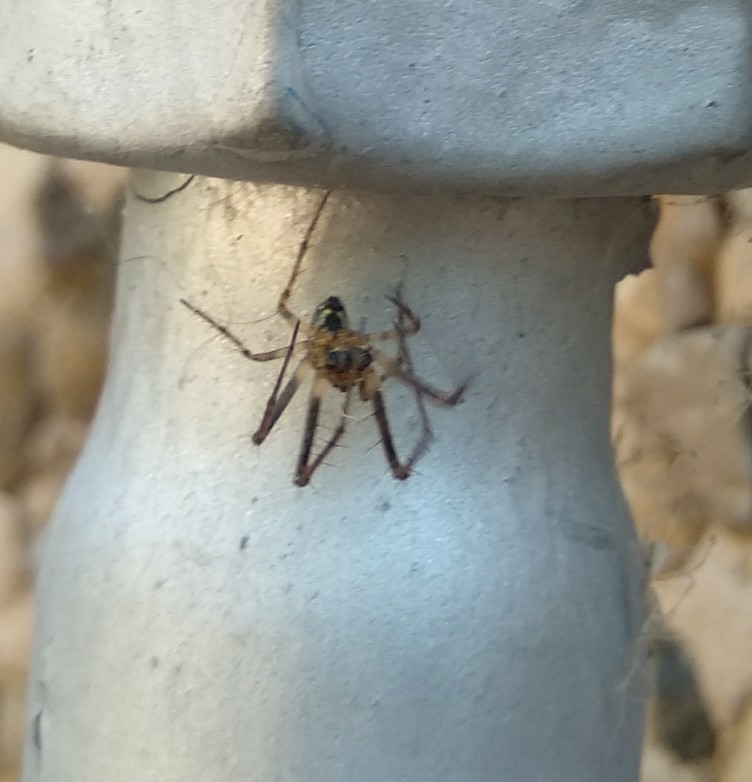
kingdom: Animalia
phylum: Arthropoda
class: Arachnida
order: Araneae
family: Araneidae
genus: Zilla
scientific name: Zilla diodia
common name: Zilla diodia
